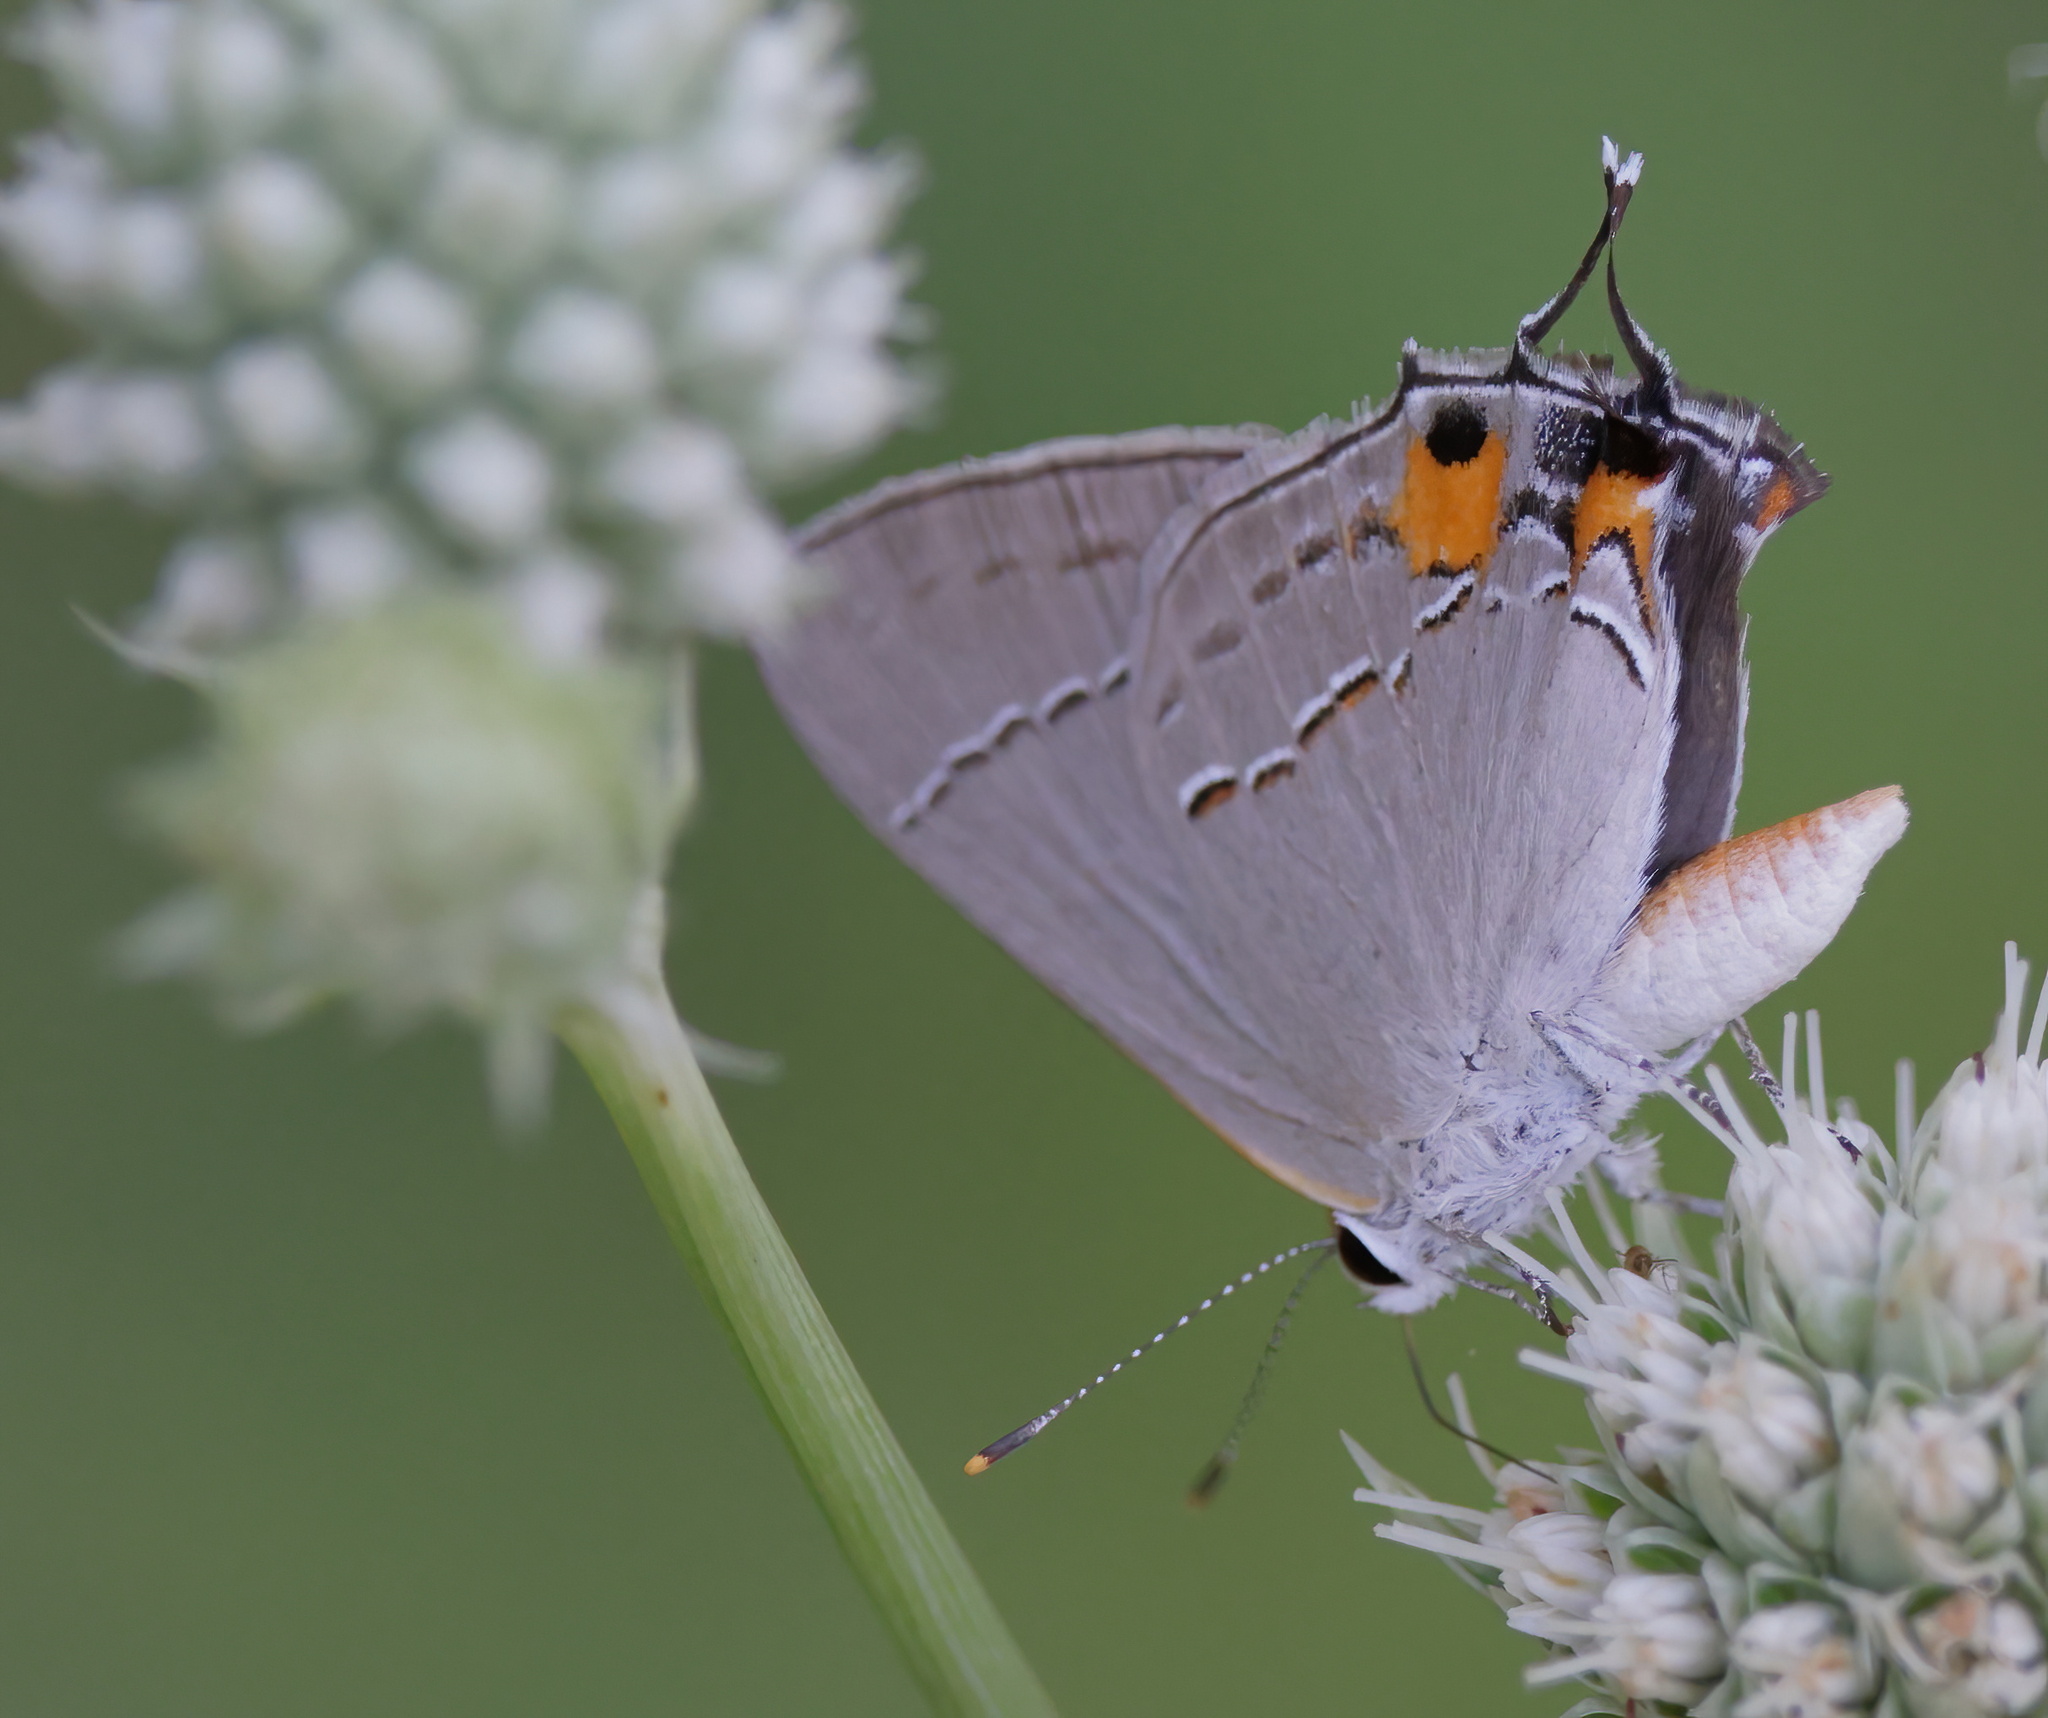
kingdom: Animalia
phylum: Arthropoda
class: Insecta
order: Lepidoptera
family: Lycaenidae
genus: Strymon
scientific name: Strymon melinus
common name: Gray hairstreak
